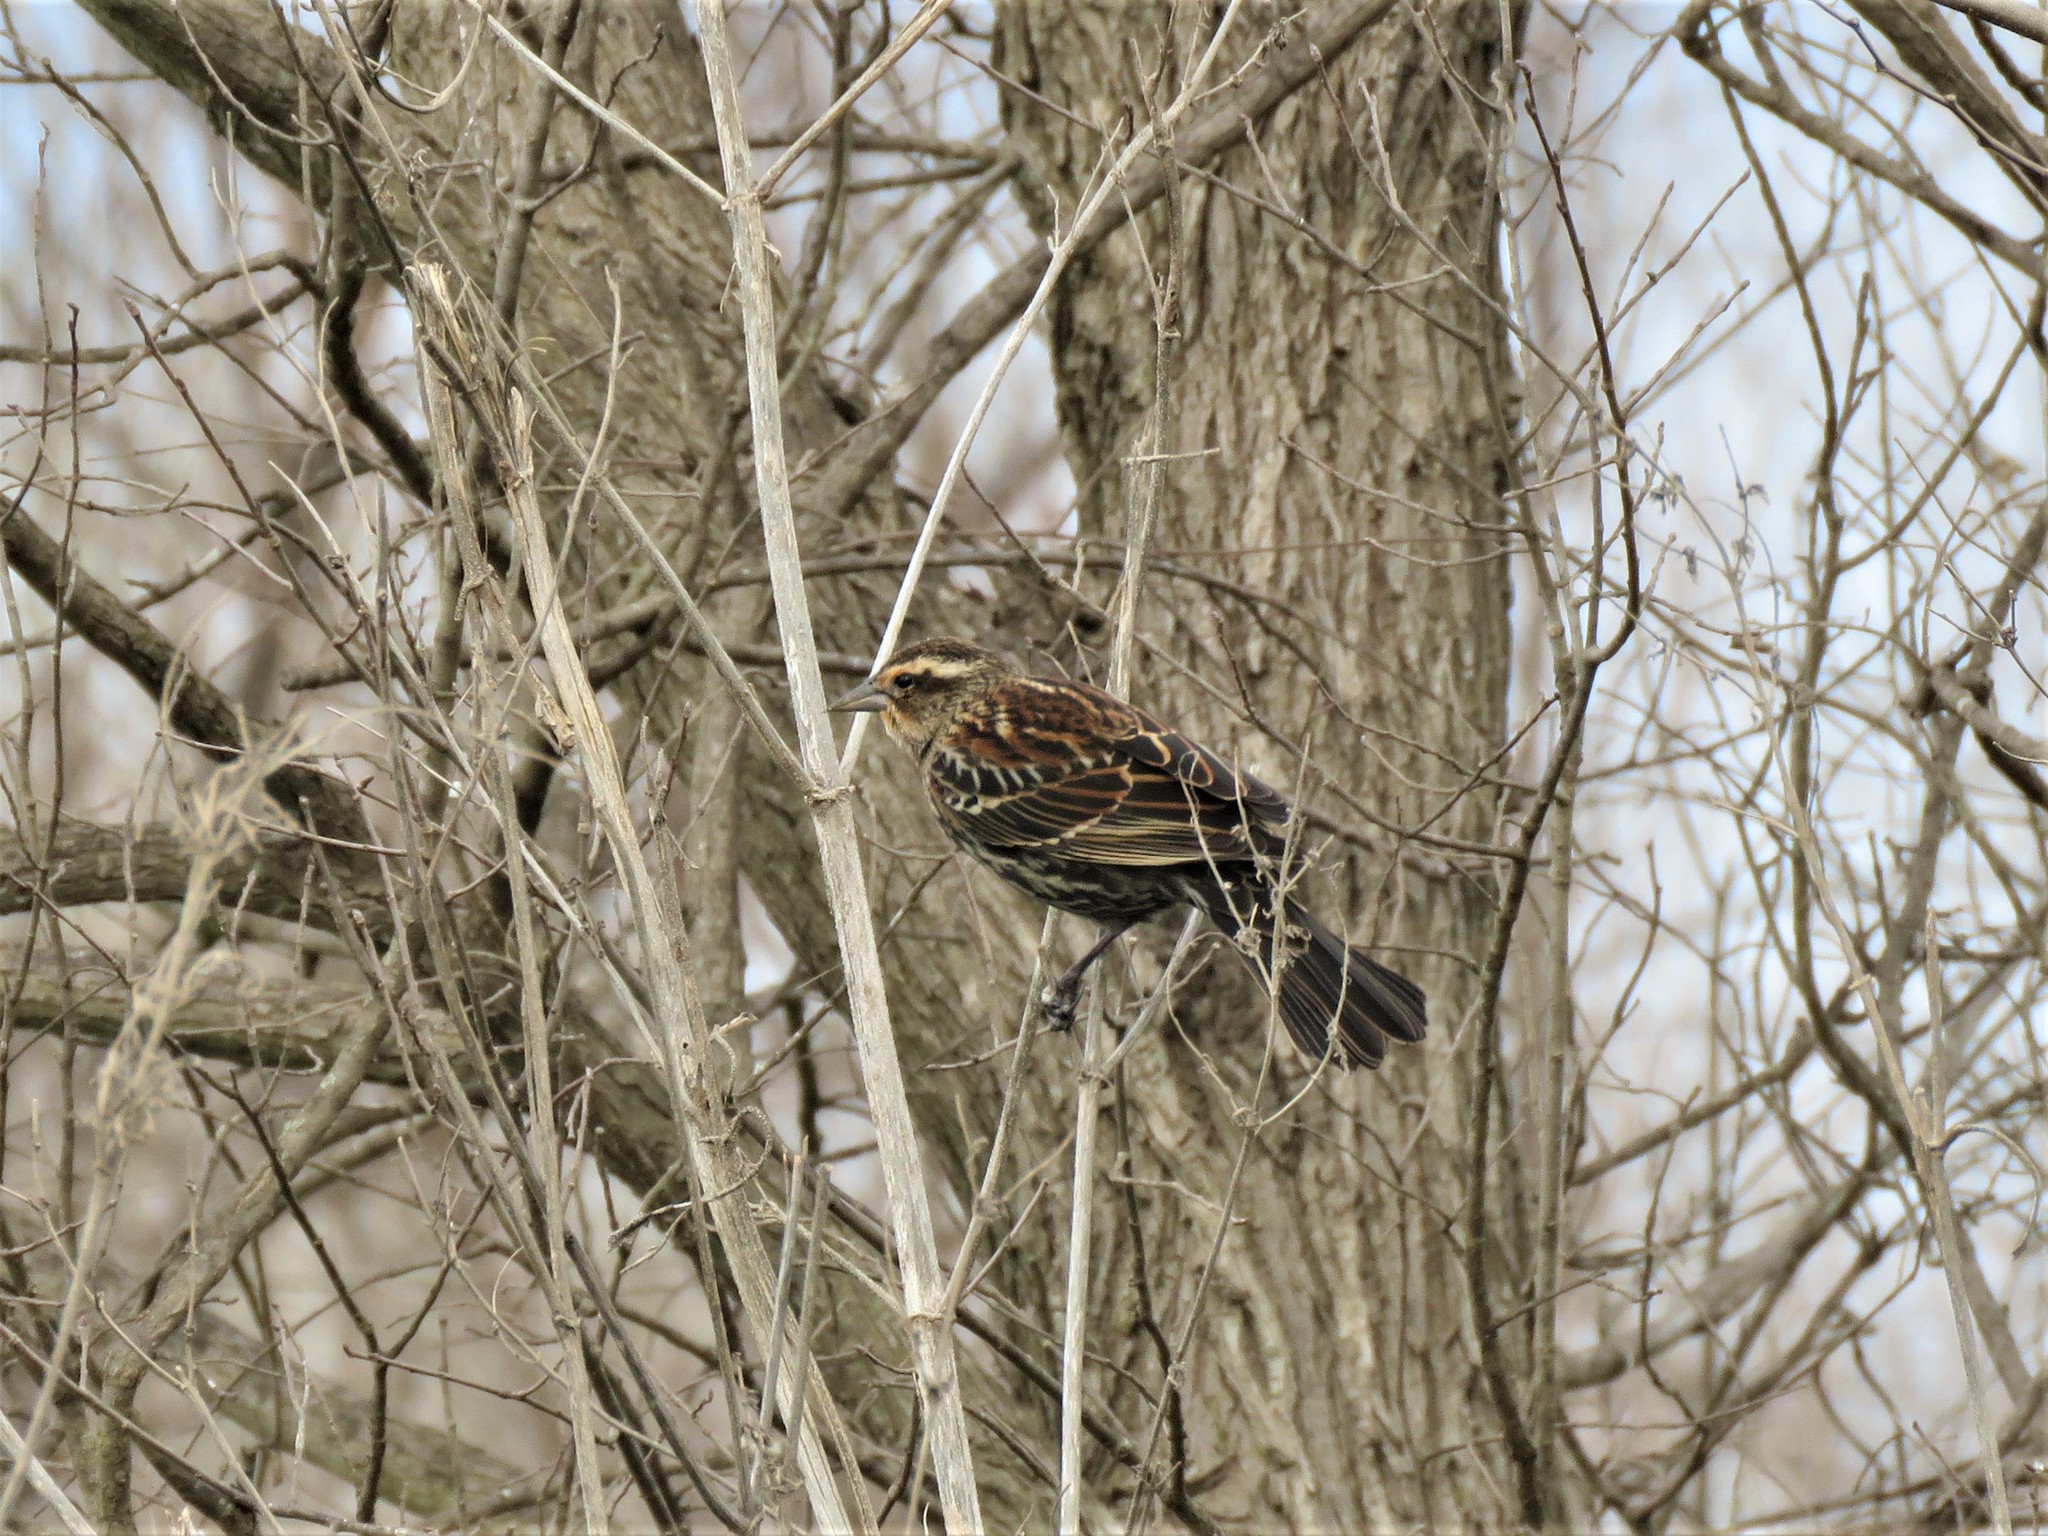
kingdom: Animalia
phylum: Chordata
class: Aves
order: Passeriformes
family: Icteridae
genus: Agelaius
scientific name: Agelaius phoeniceus
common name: Red-winged blackbird
